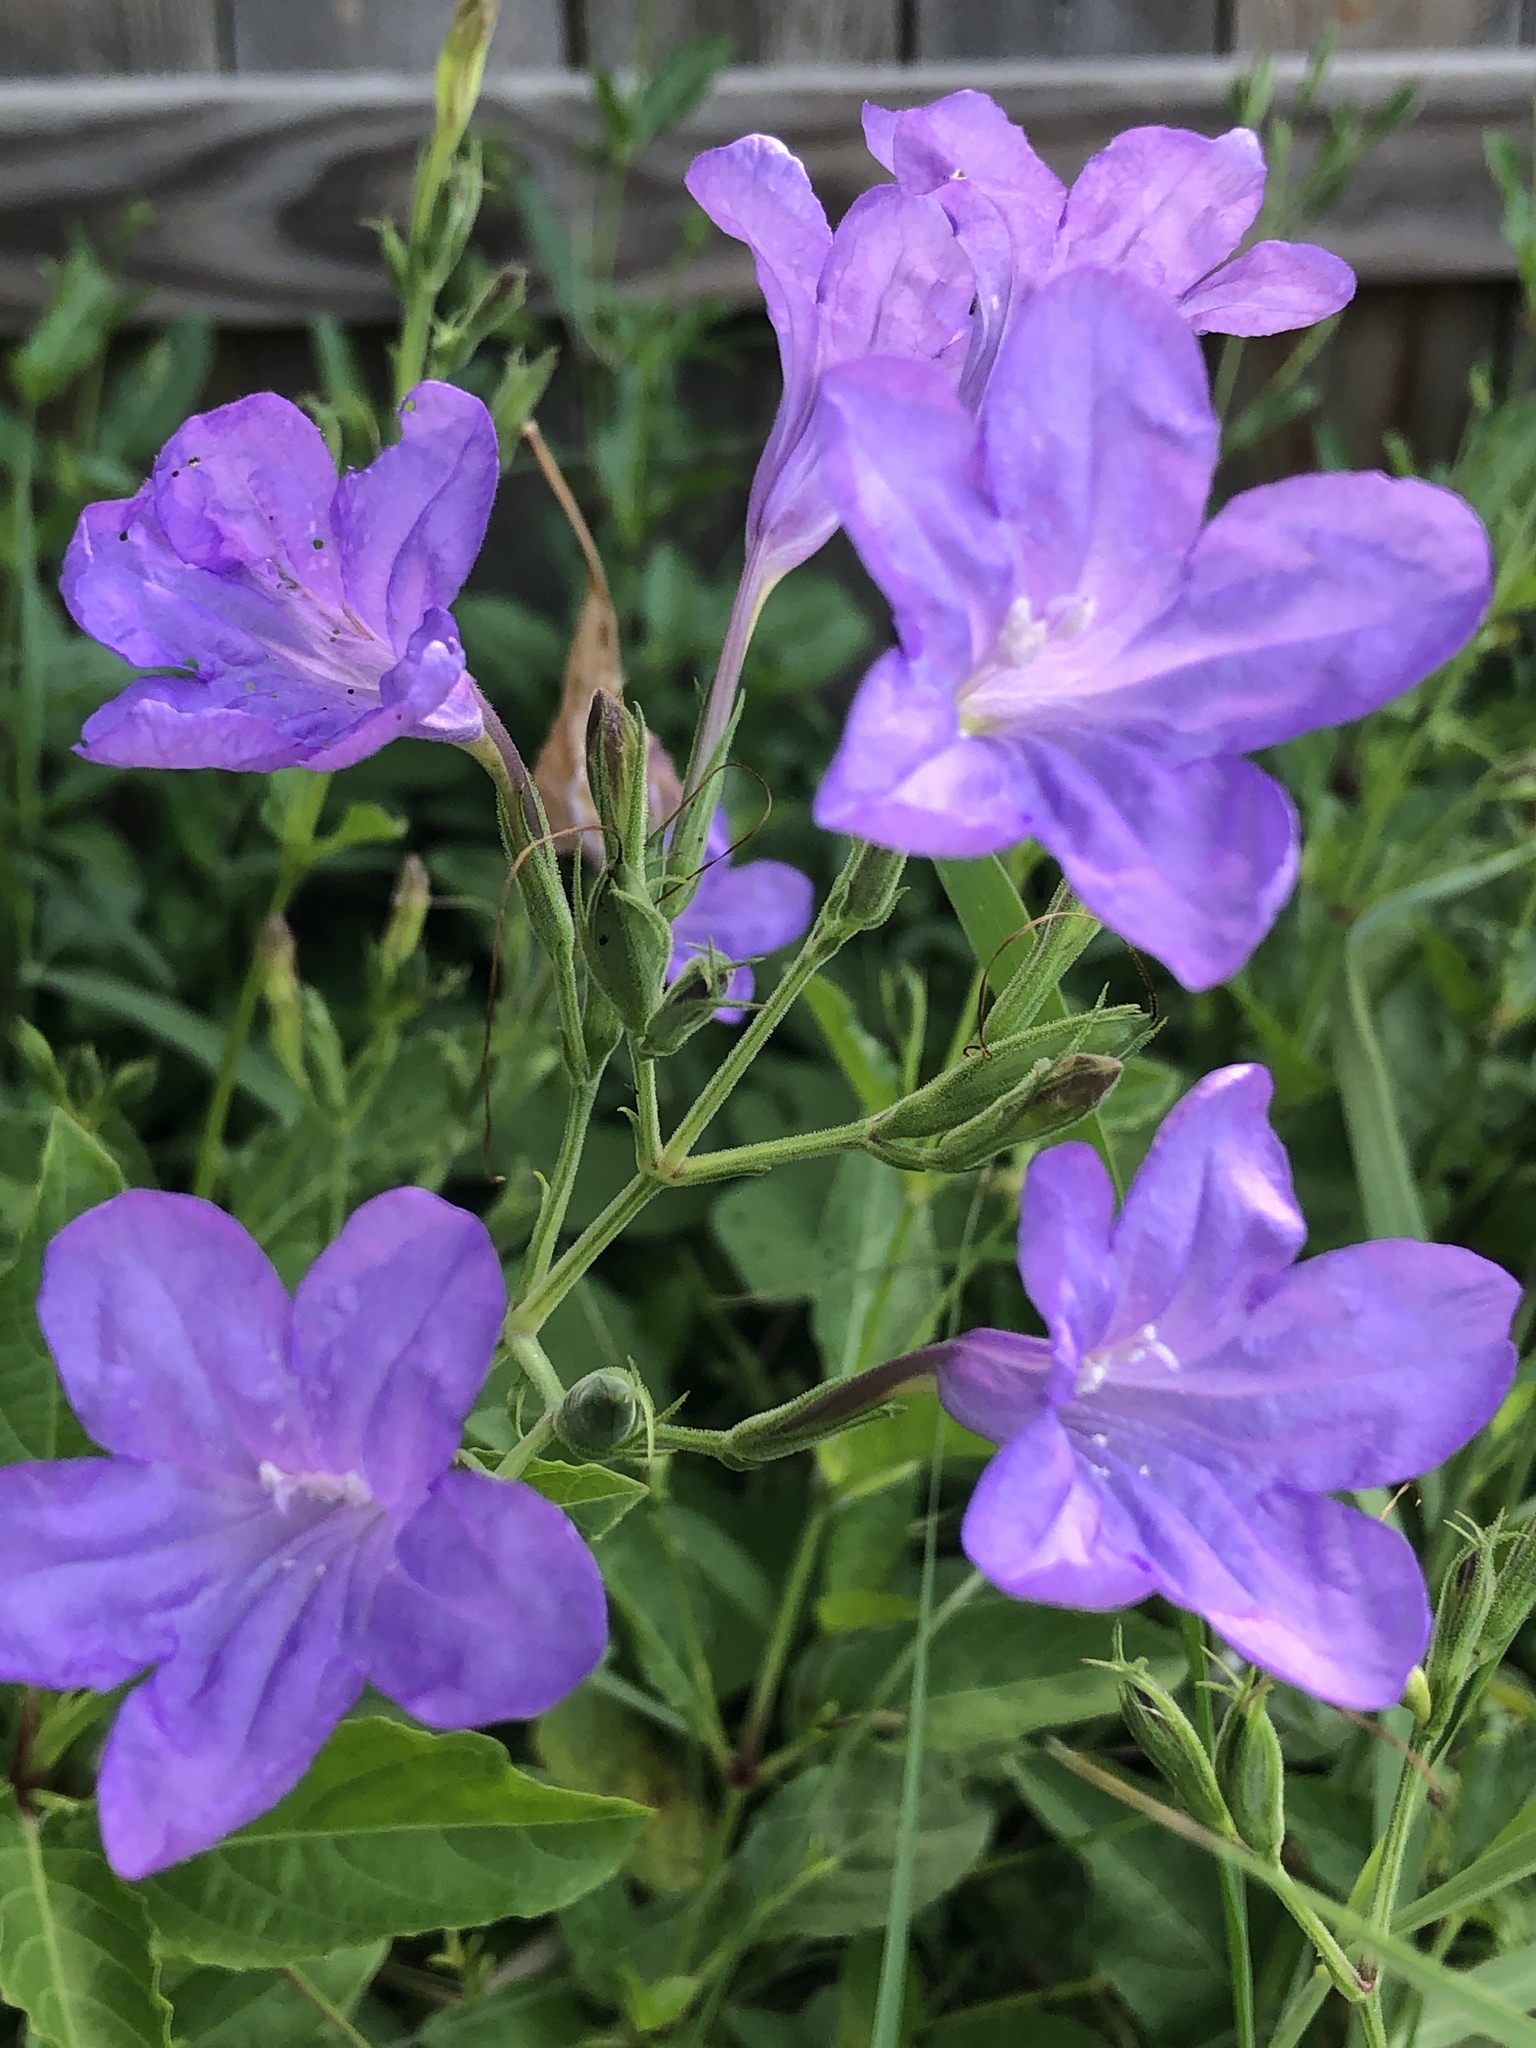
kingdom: Plantae
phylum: Tracheophyta
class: Magnoliopsida
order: Lamiales
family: Acanthaceae
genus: Ruellia
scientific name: Ruellia ciliatiflora
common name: Hairyflower wild petunia
